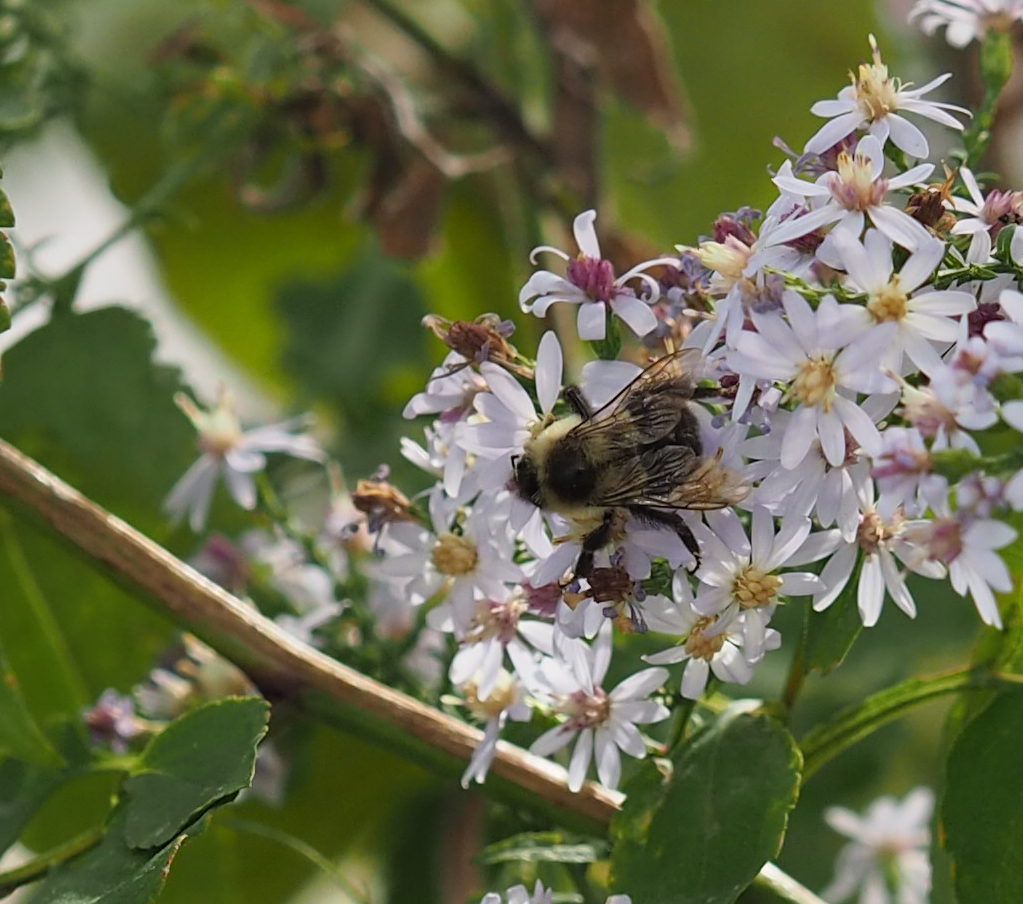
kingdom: Animalia
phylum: Arthropoda
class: Insecta
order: Hymenoptera
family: Apidae
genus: Bombus
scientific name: Bombus impatiens
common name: Common eastern bumble bee
